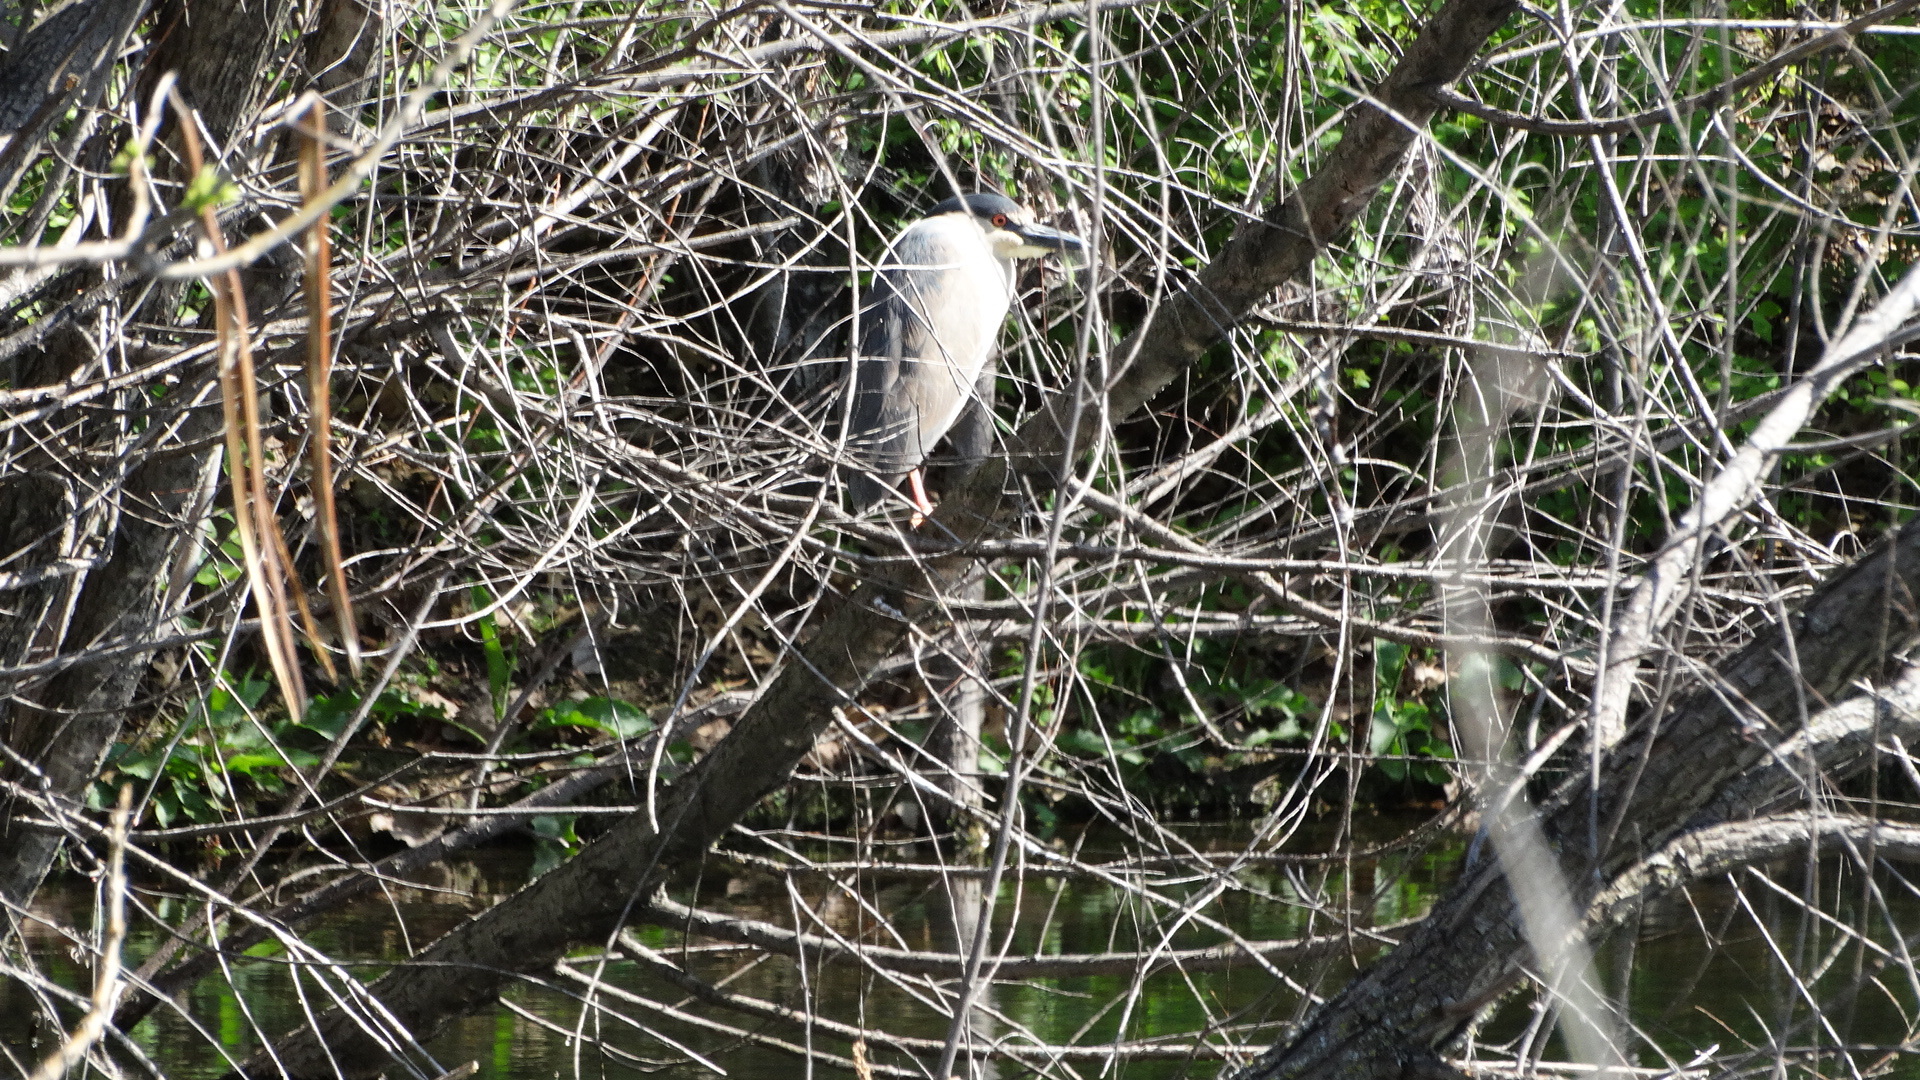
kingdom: Animalia
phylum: Chordata
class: Aves
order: Pelecaniformes
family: Ardeidae
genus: Nycticorax
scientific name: Nycticorax nycticorax
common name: Black-crowned night heron
